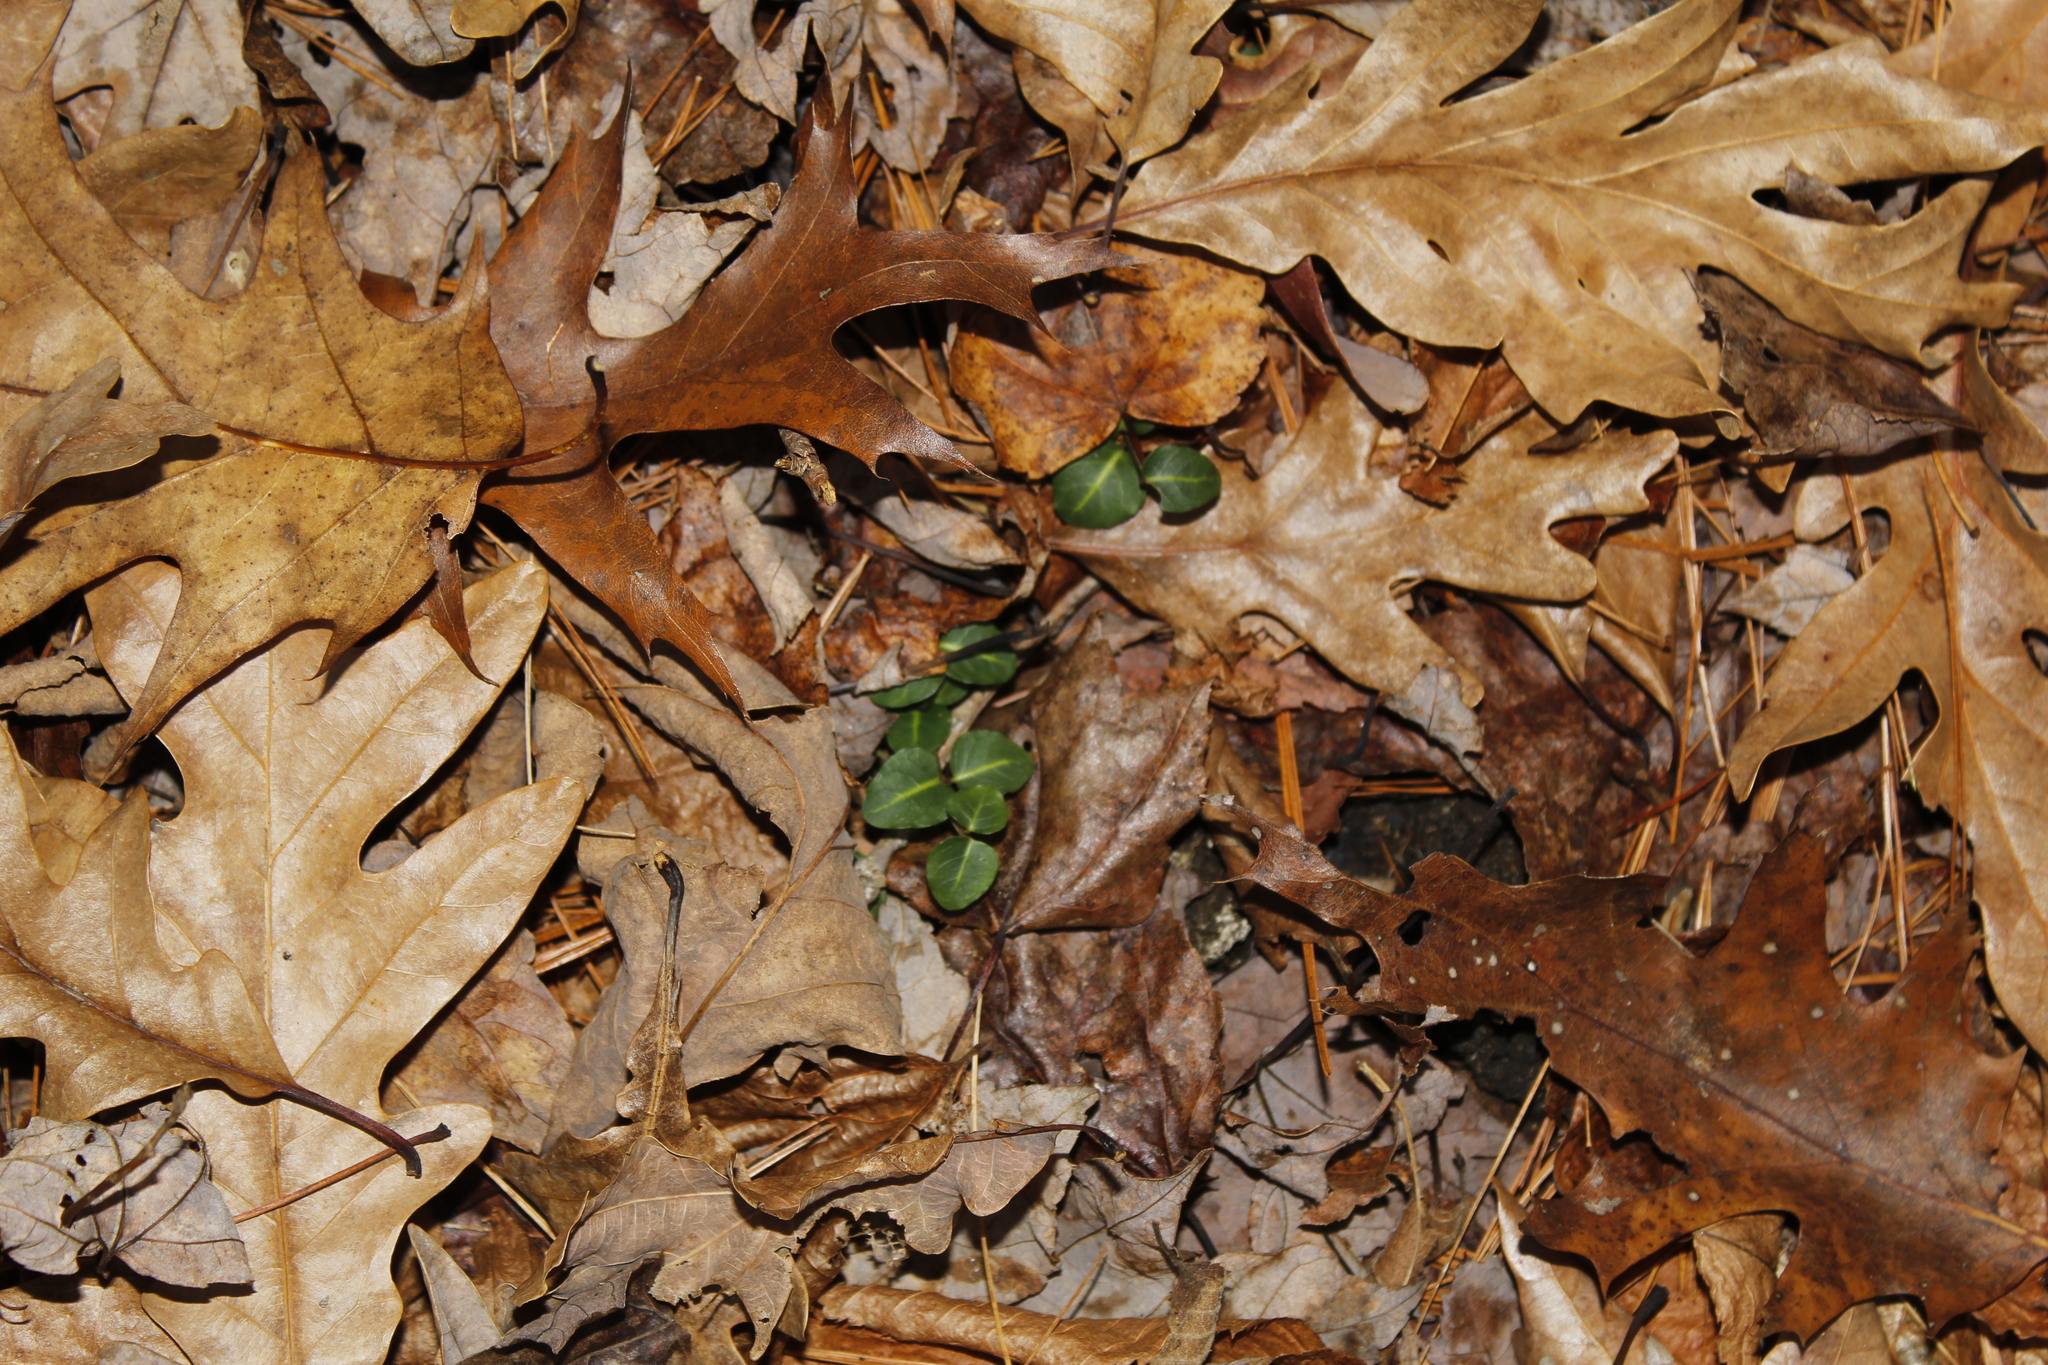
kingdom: Plantae
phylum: Tracheophyta
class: Magnoliopsida
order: Gentianales
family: Rubiaceae
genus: Mitchella
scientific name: Mitchella repens
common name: Partridge-berry
